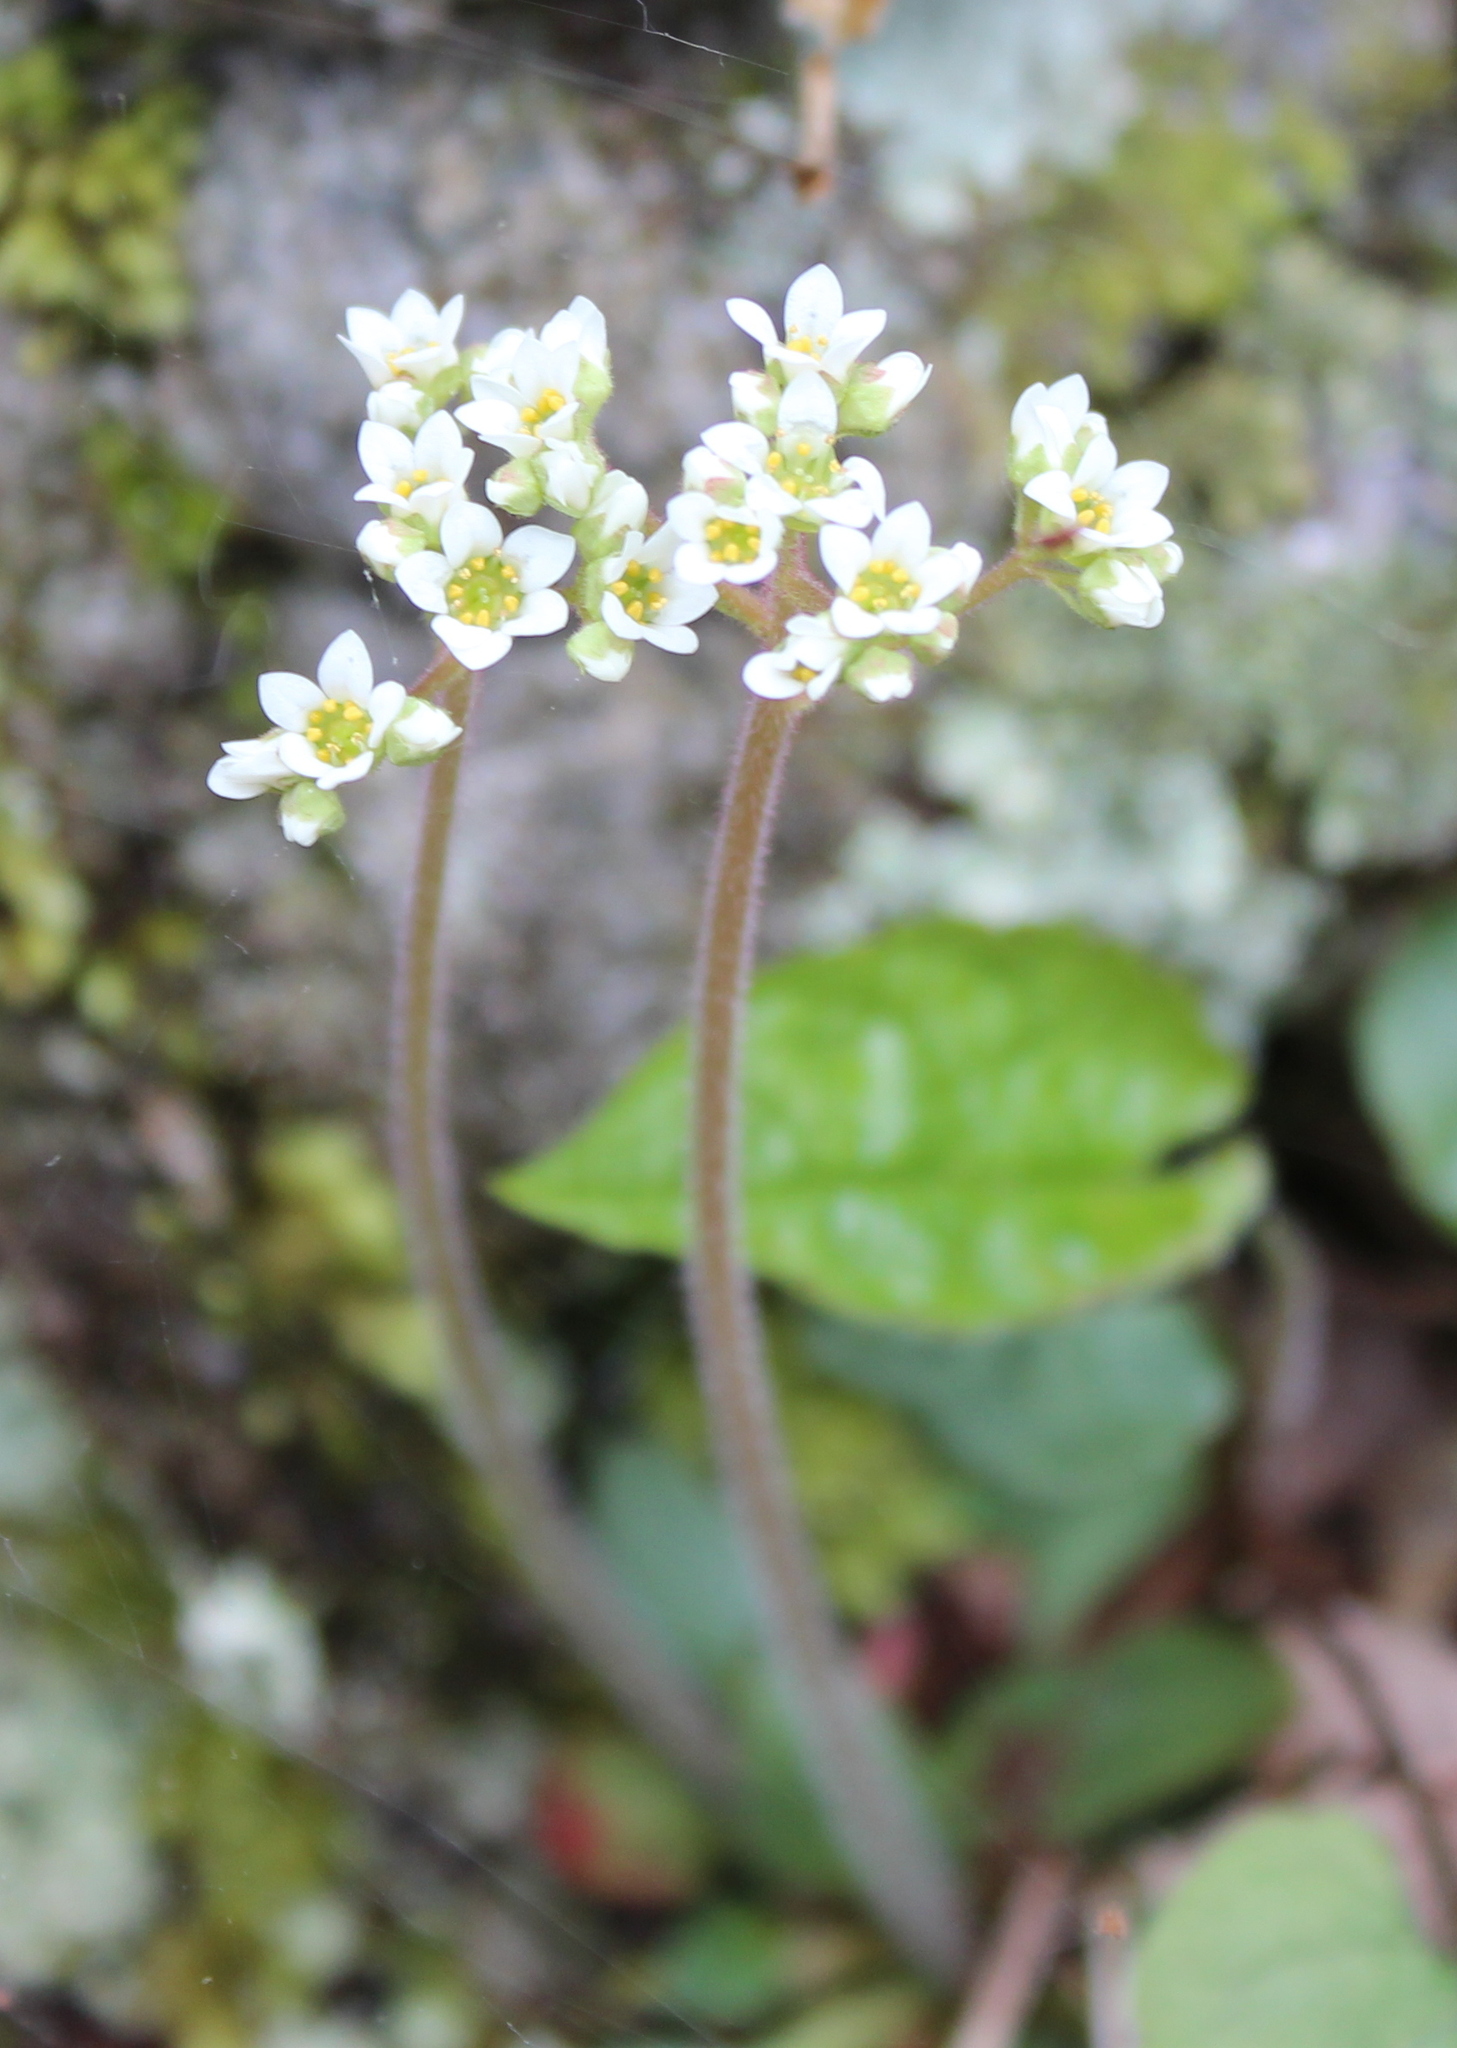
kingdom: Plantae
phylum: Tracheophyta
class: Magnoliopsida
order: Saxifragales
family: Saxifragaceae
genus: Micranthes
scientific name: Micranthes virginiensis
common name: Early saxifrage
